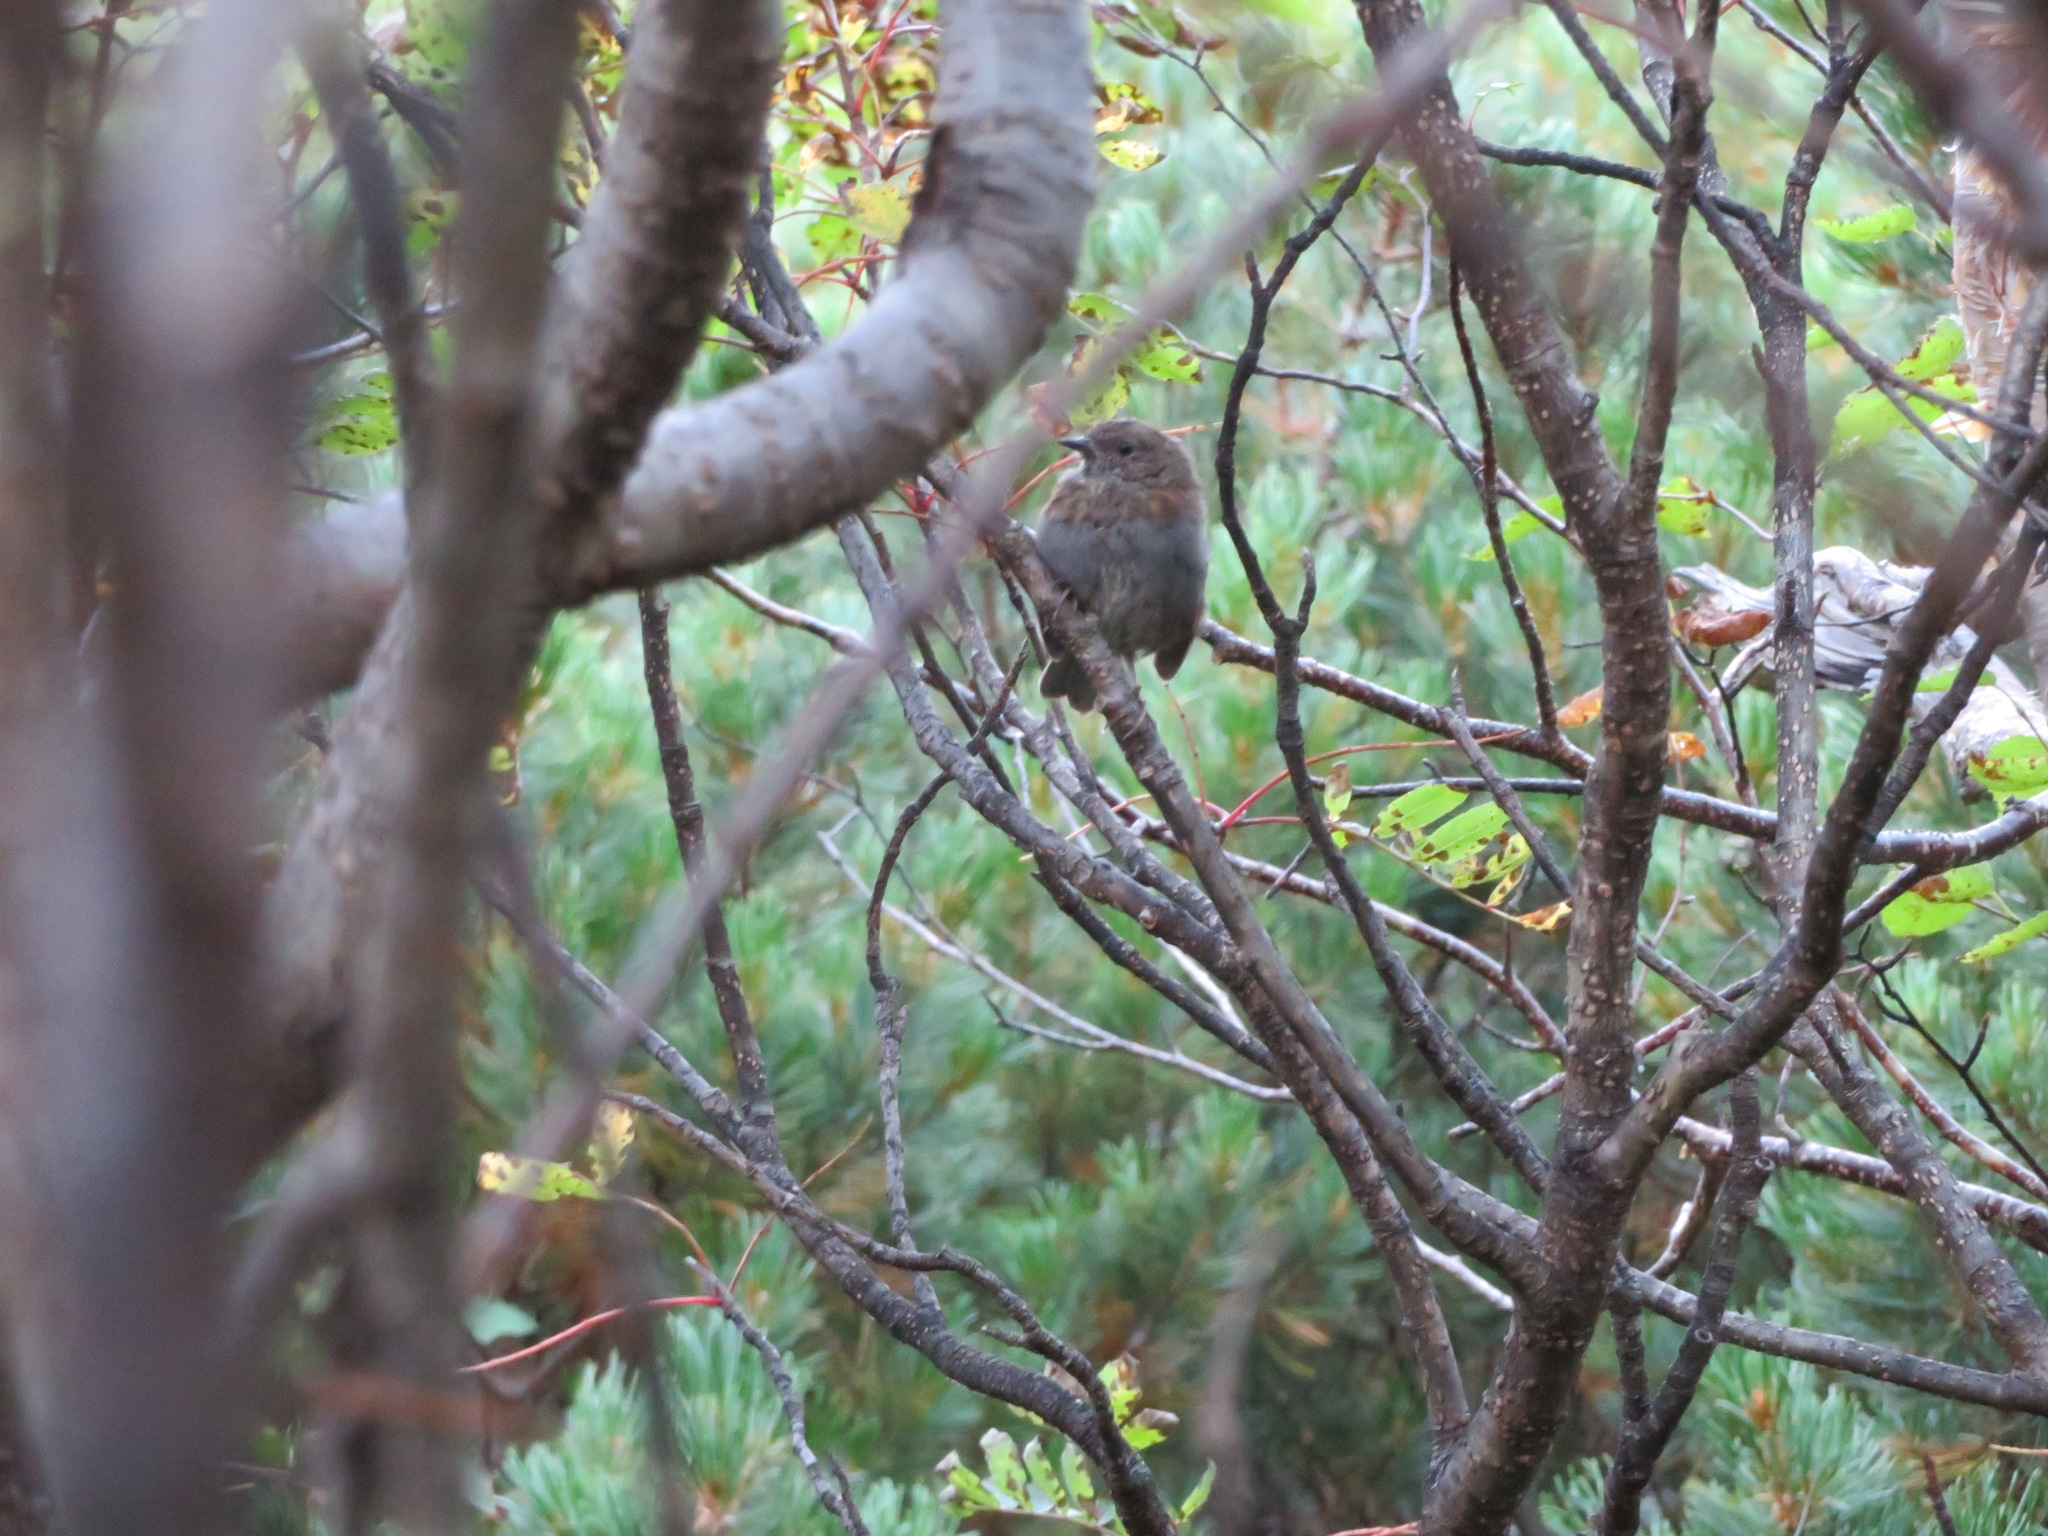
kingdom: Animalia
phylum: Chordata
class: Aves
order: Passeriformes
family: Prunellidae
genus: Prunella
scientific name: Prunella rubida
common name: Japanese accentor
